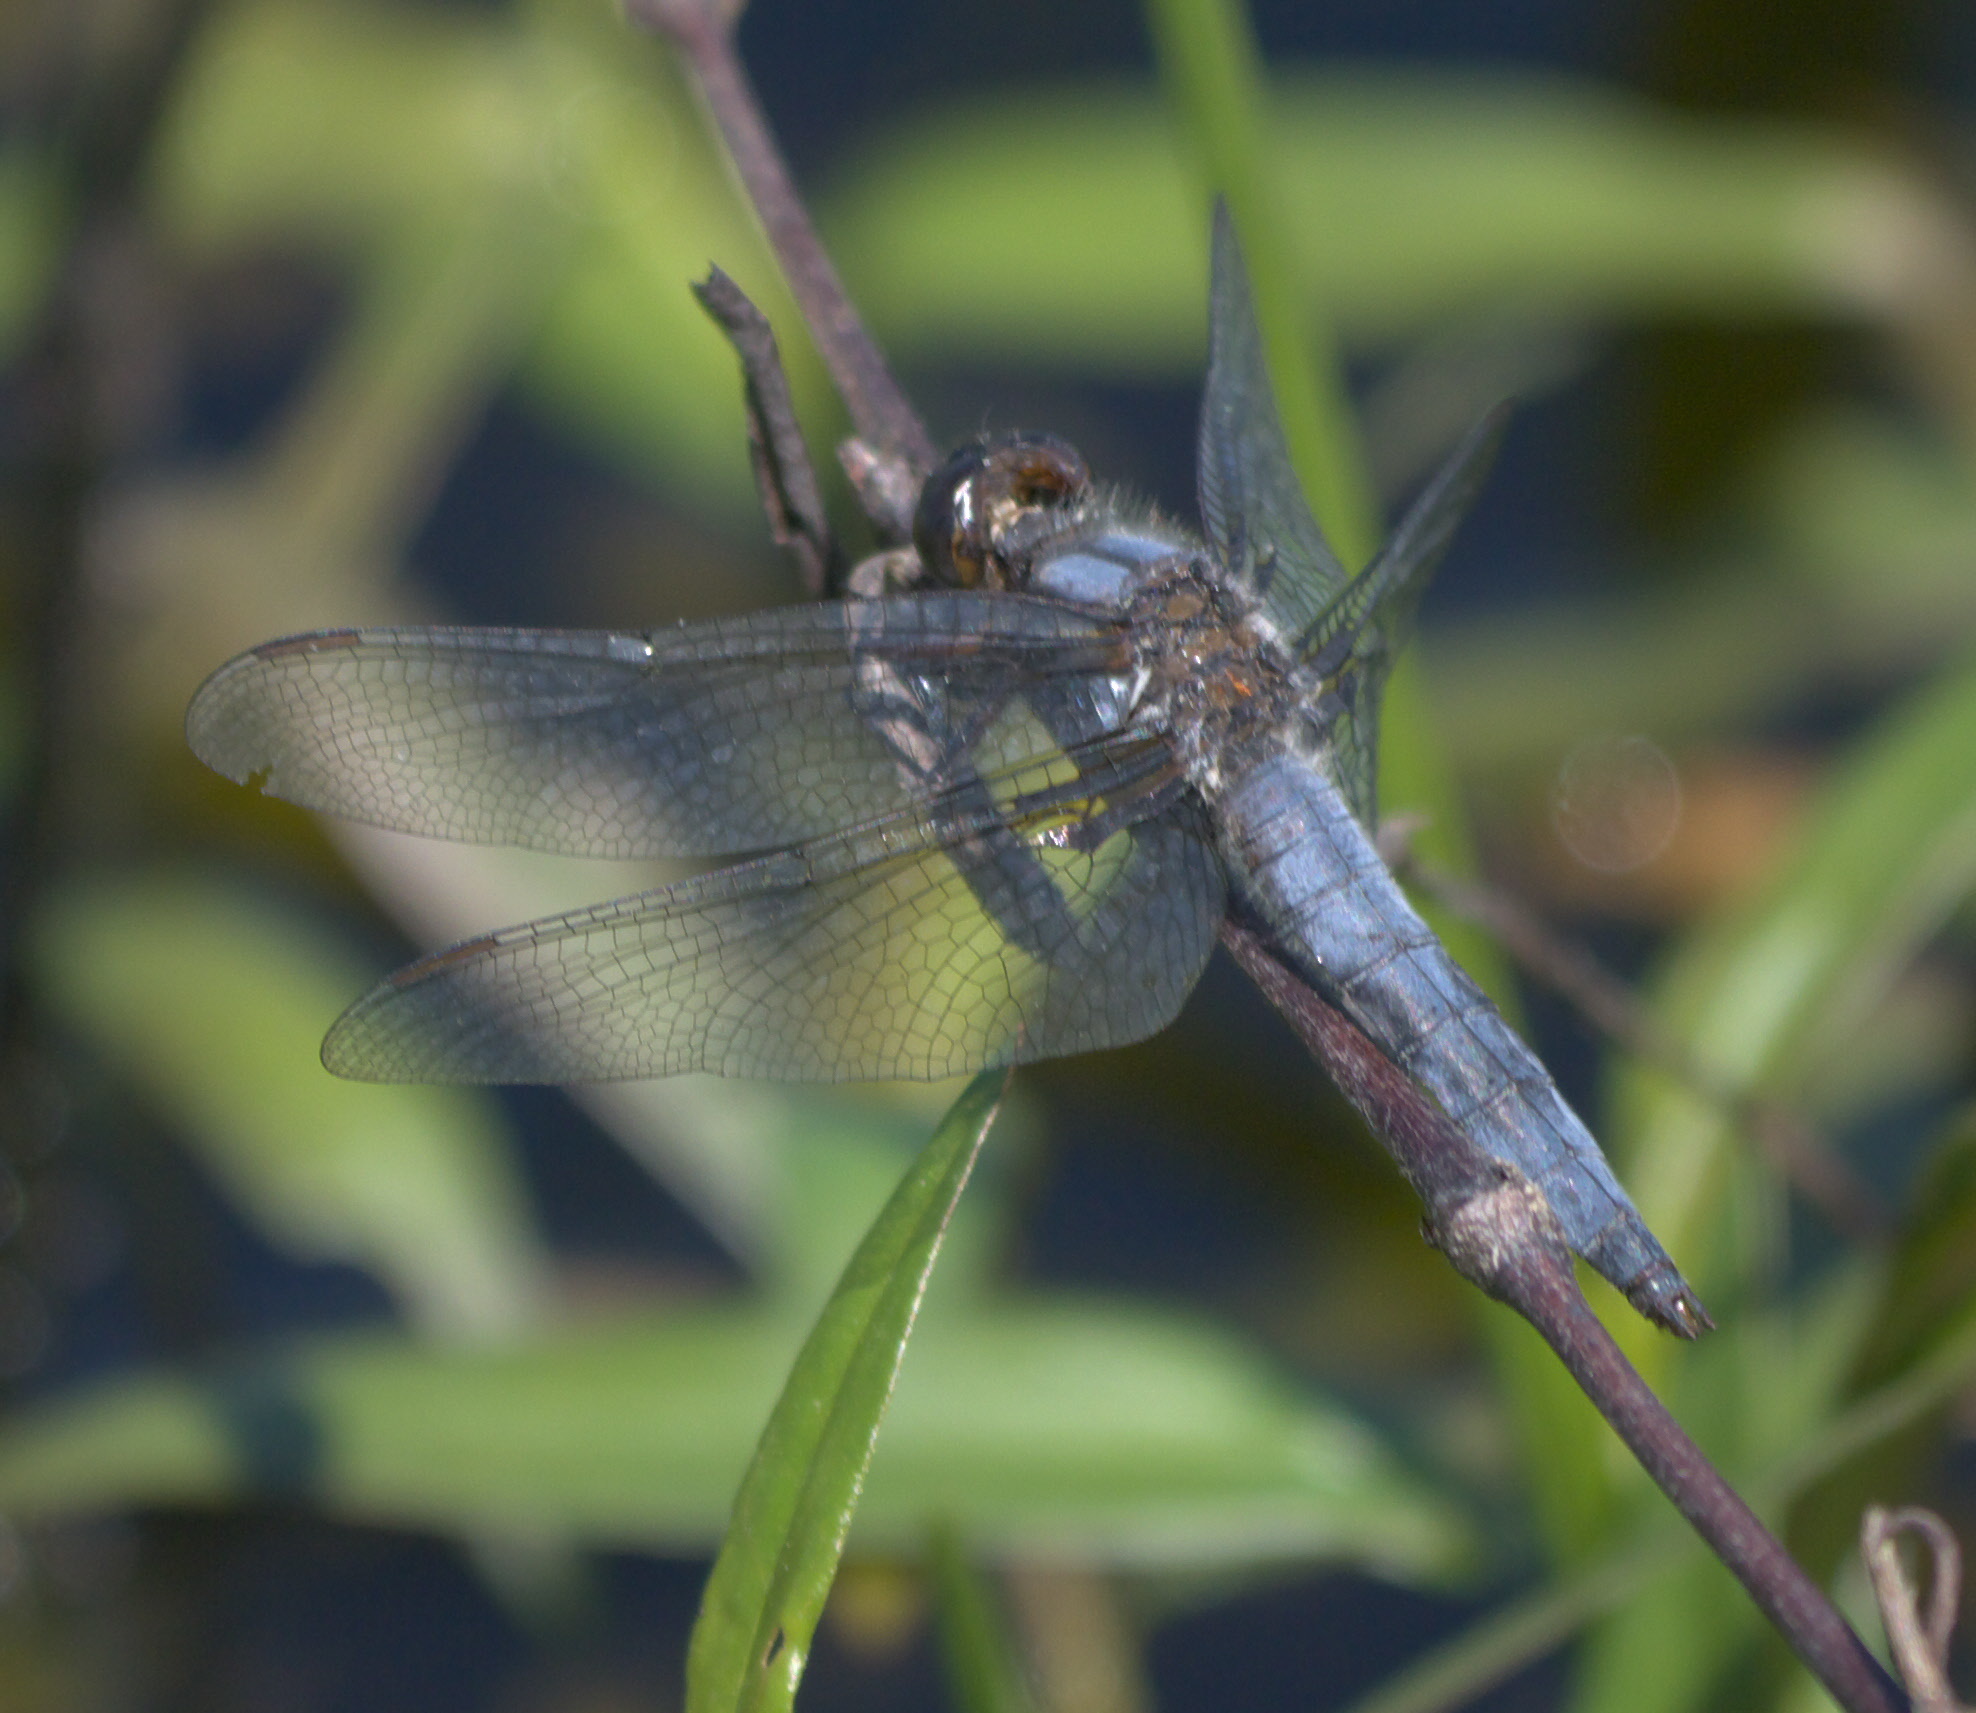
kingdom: Animalia
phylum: Arthropoda
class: Insecta
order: Odonata
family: Libellulidae
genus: Ladona
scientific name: Ladona deplanata
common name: Blue corporal
